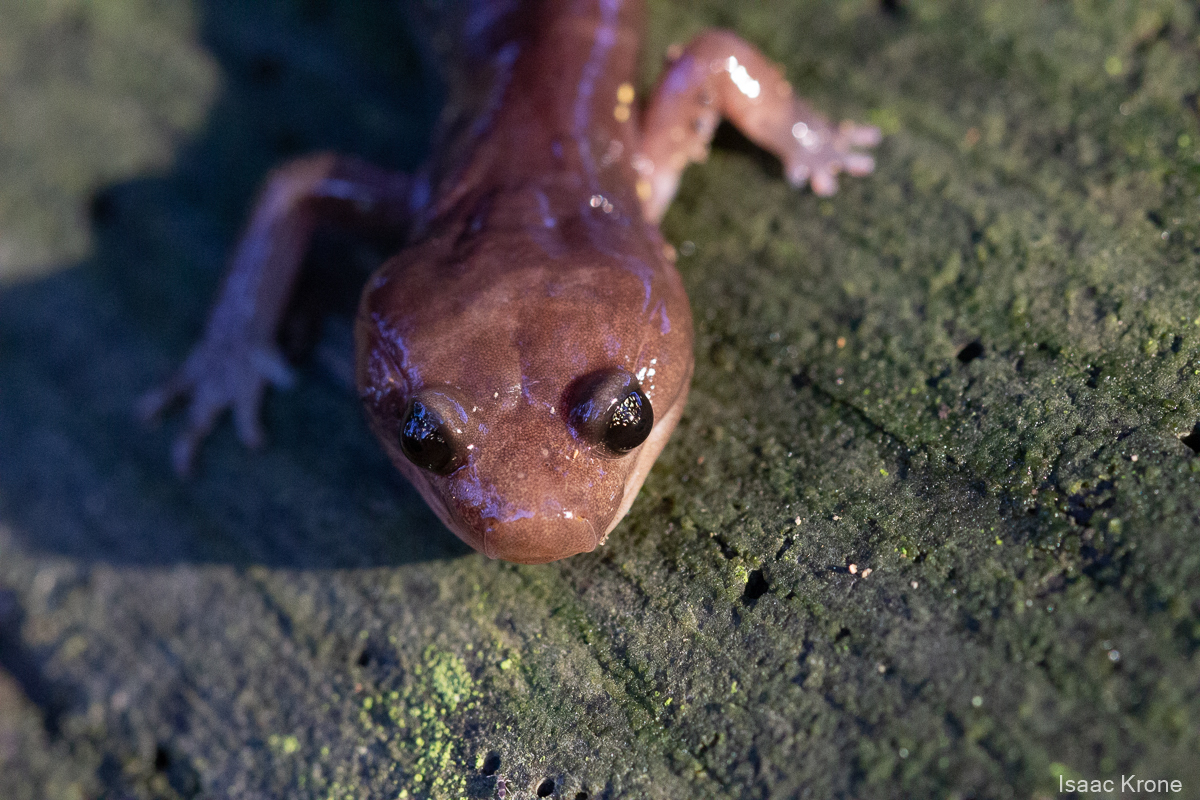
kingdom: Animalia
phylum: Chordata
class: Amphibia
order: Caudata
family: Plethodontidae
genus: Aneides
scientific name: Aneides lugubris
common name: Arboreal salamander
